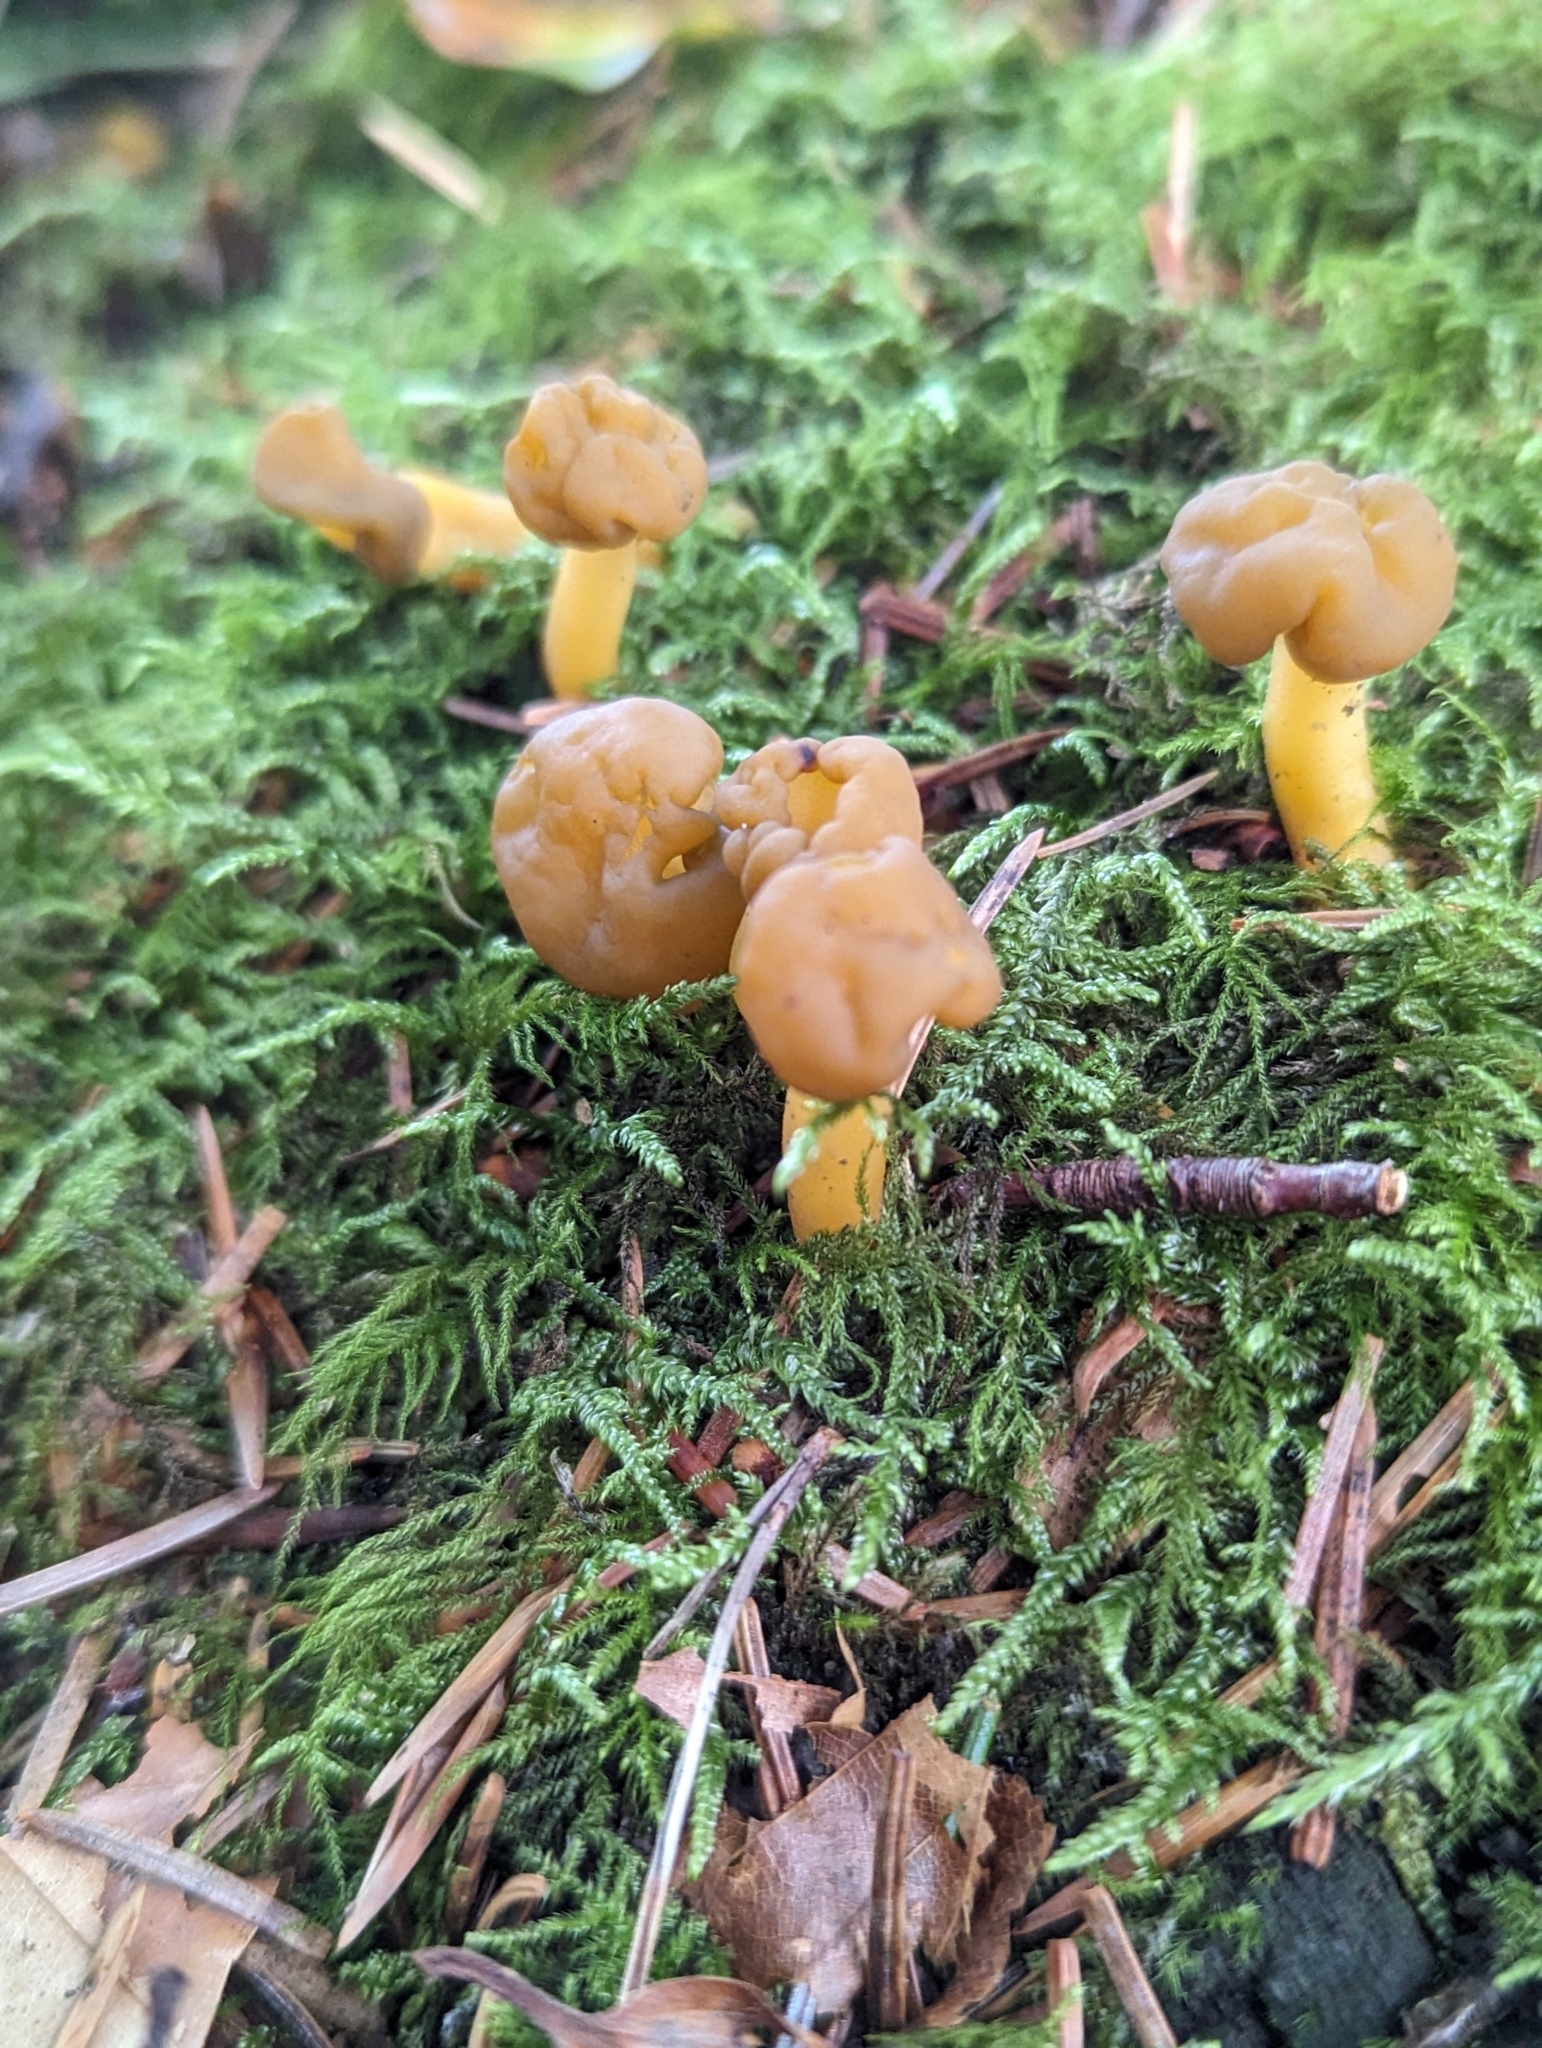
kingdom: Fungi
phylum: Ascomycota
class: Leotiomycetes
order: Leotiales
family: Leotiaceae
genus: Leotia
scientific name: Leotia lubrica
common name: Jellybaby
